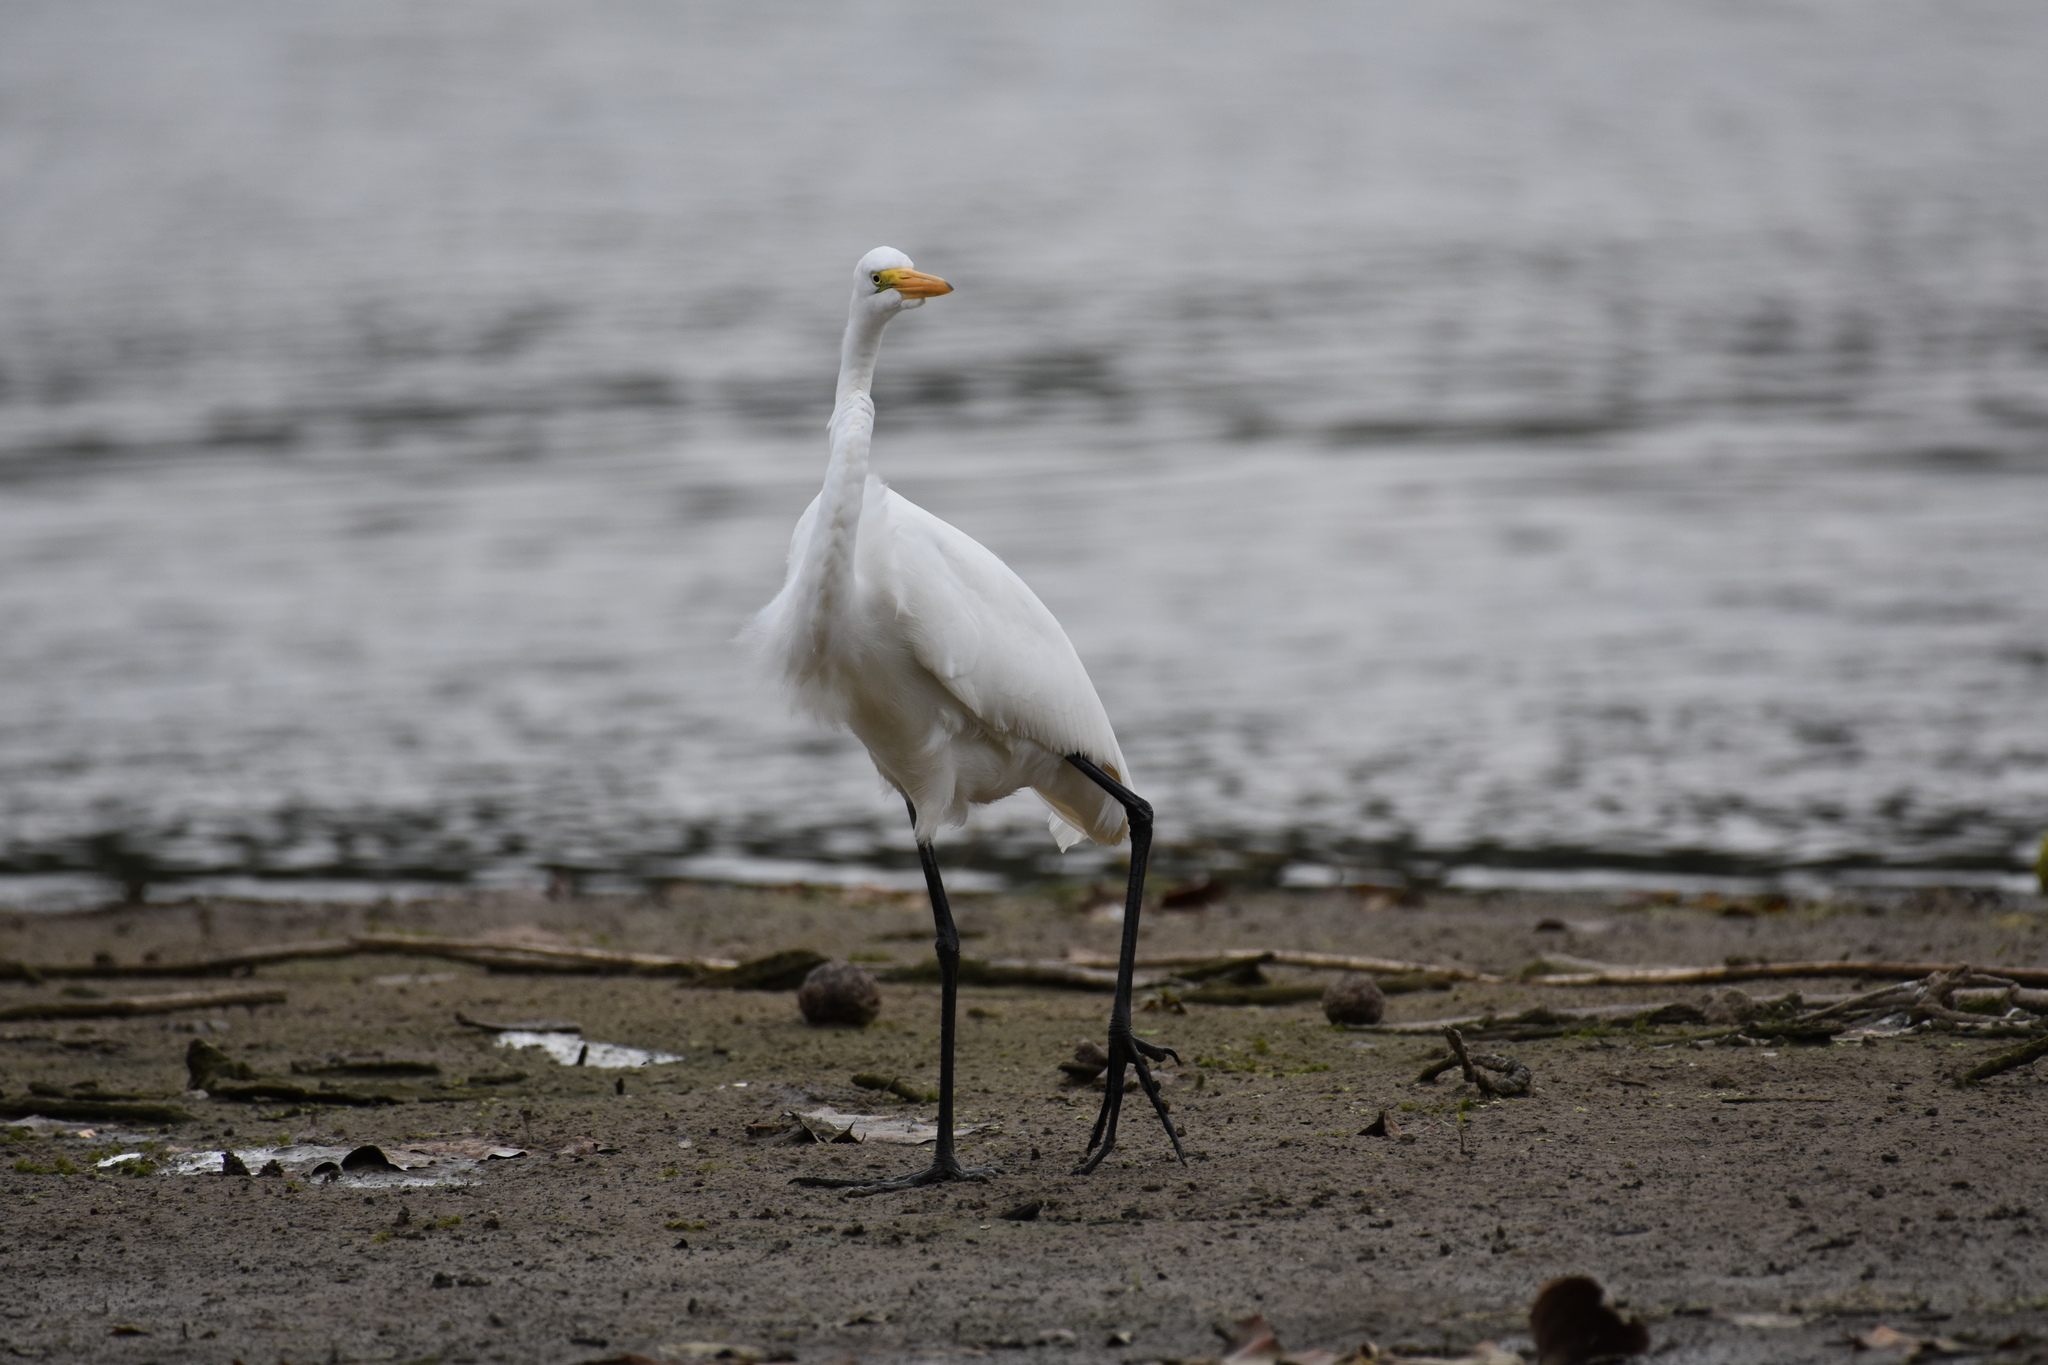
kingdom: Animalia
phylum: Chordata
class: Aves
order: Pelecaniformes
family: Ardeidae
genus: Ardea
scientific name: Ardea alba
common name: Great egret
